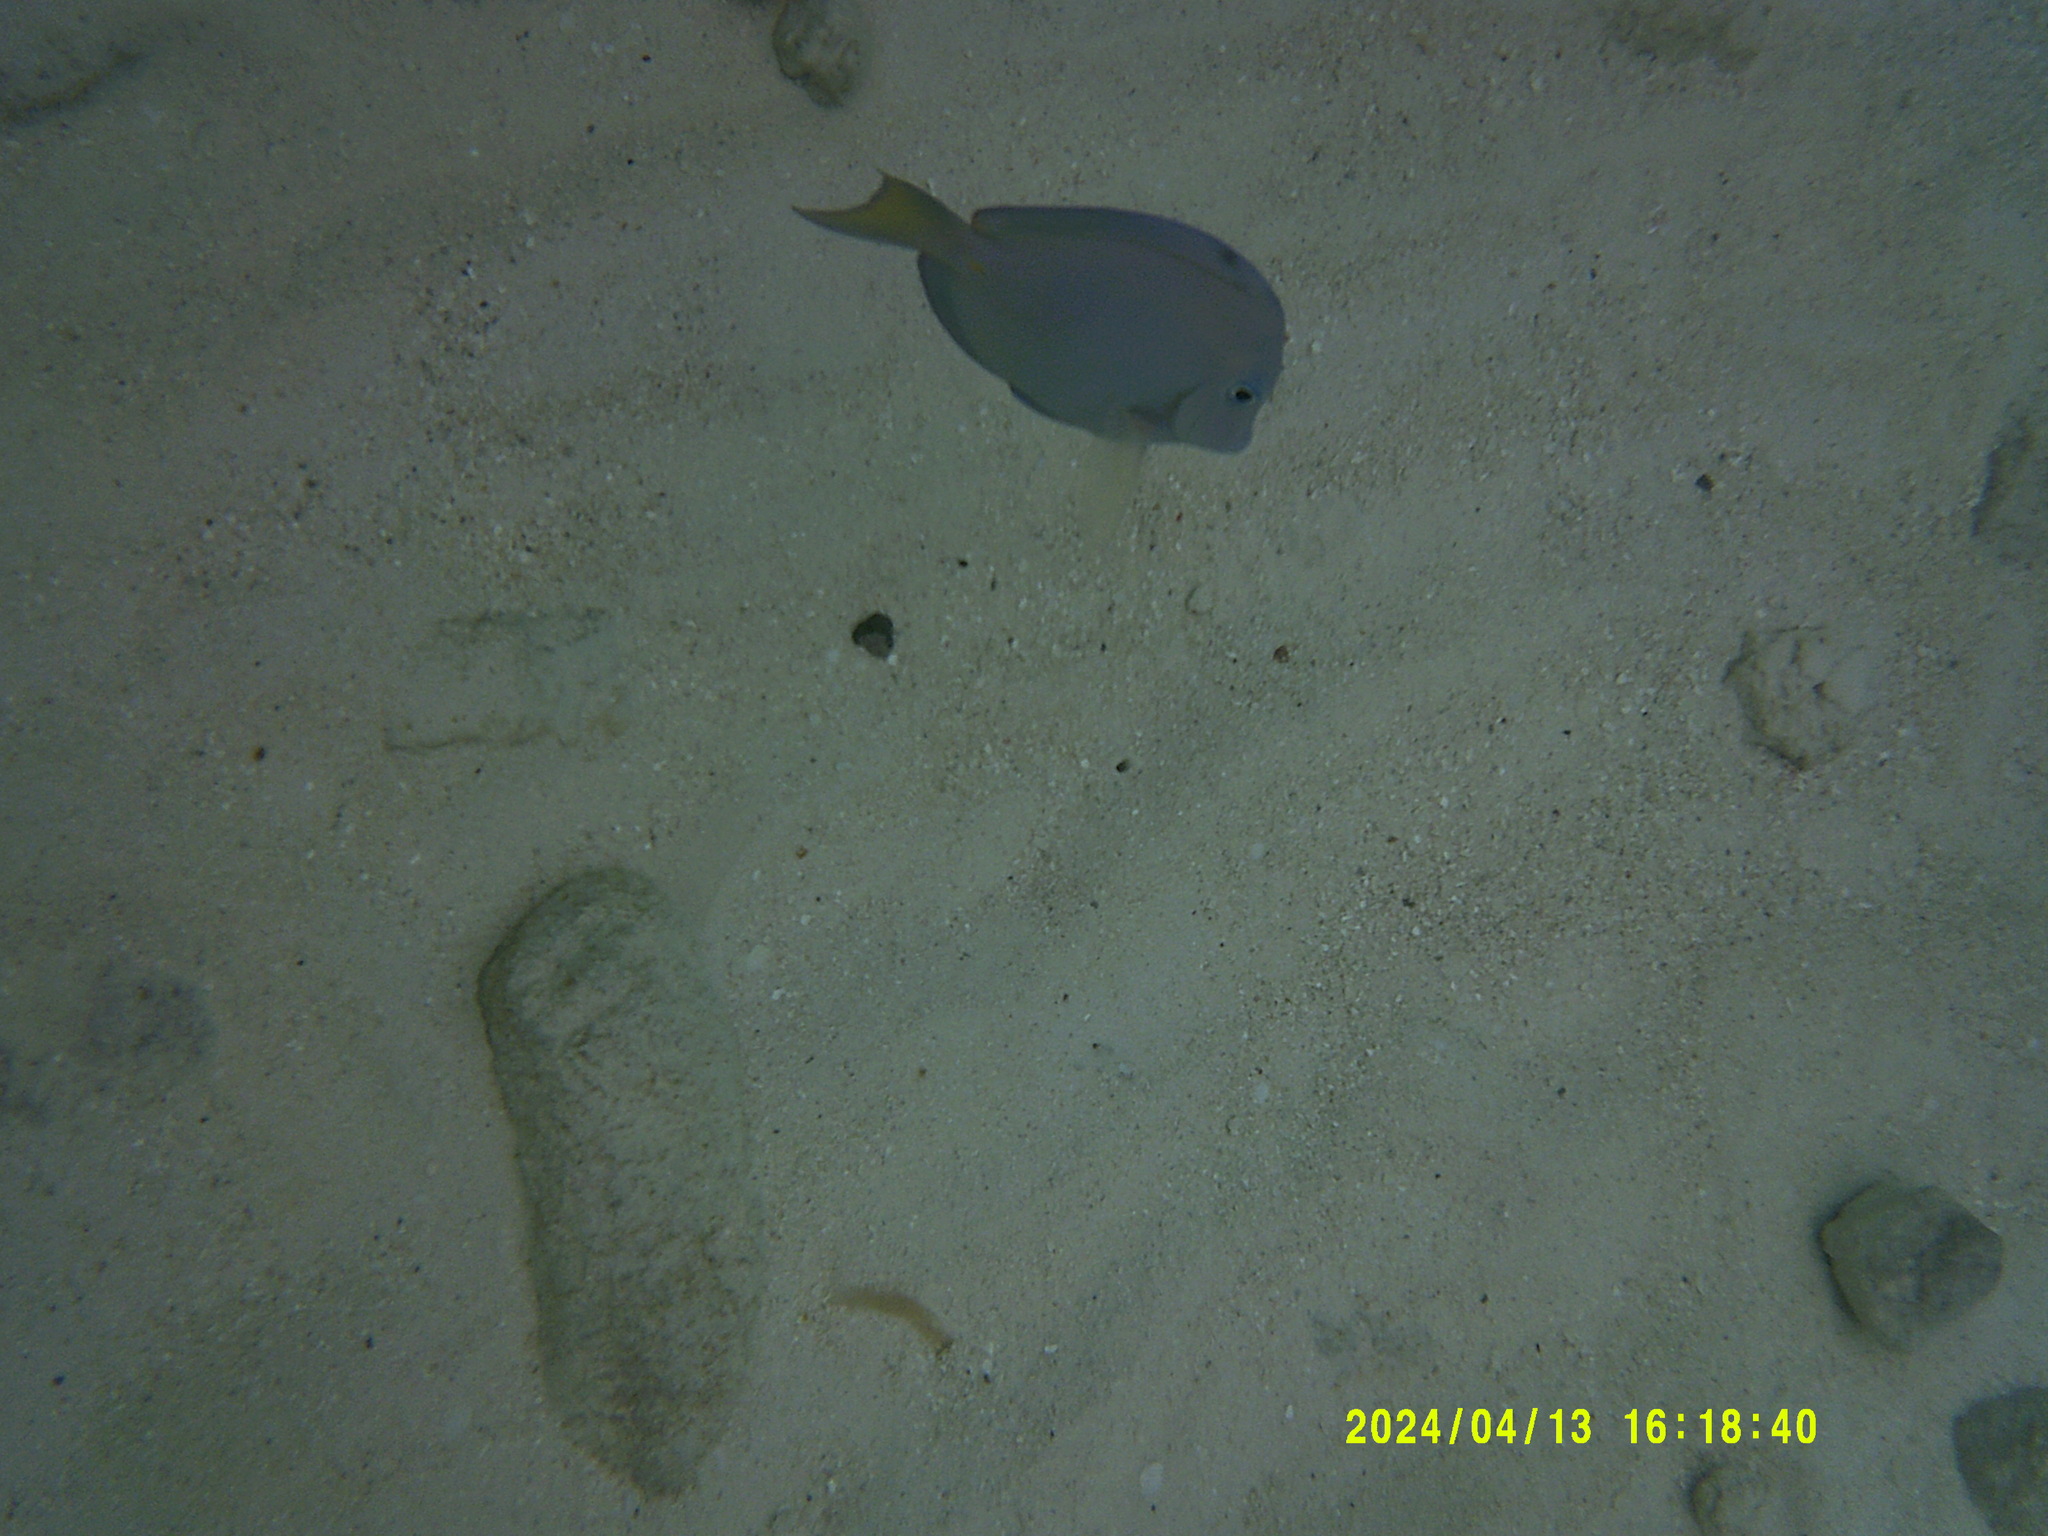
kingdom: Animalia
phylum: Chordata
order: Perciformes
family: Acanthuridae
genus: Acanthurus
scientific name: Acanthurus coeruleus
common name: Blue tang
